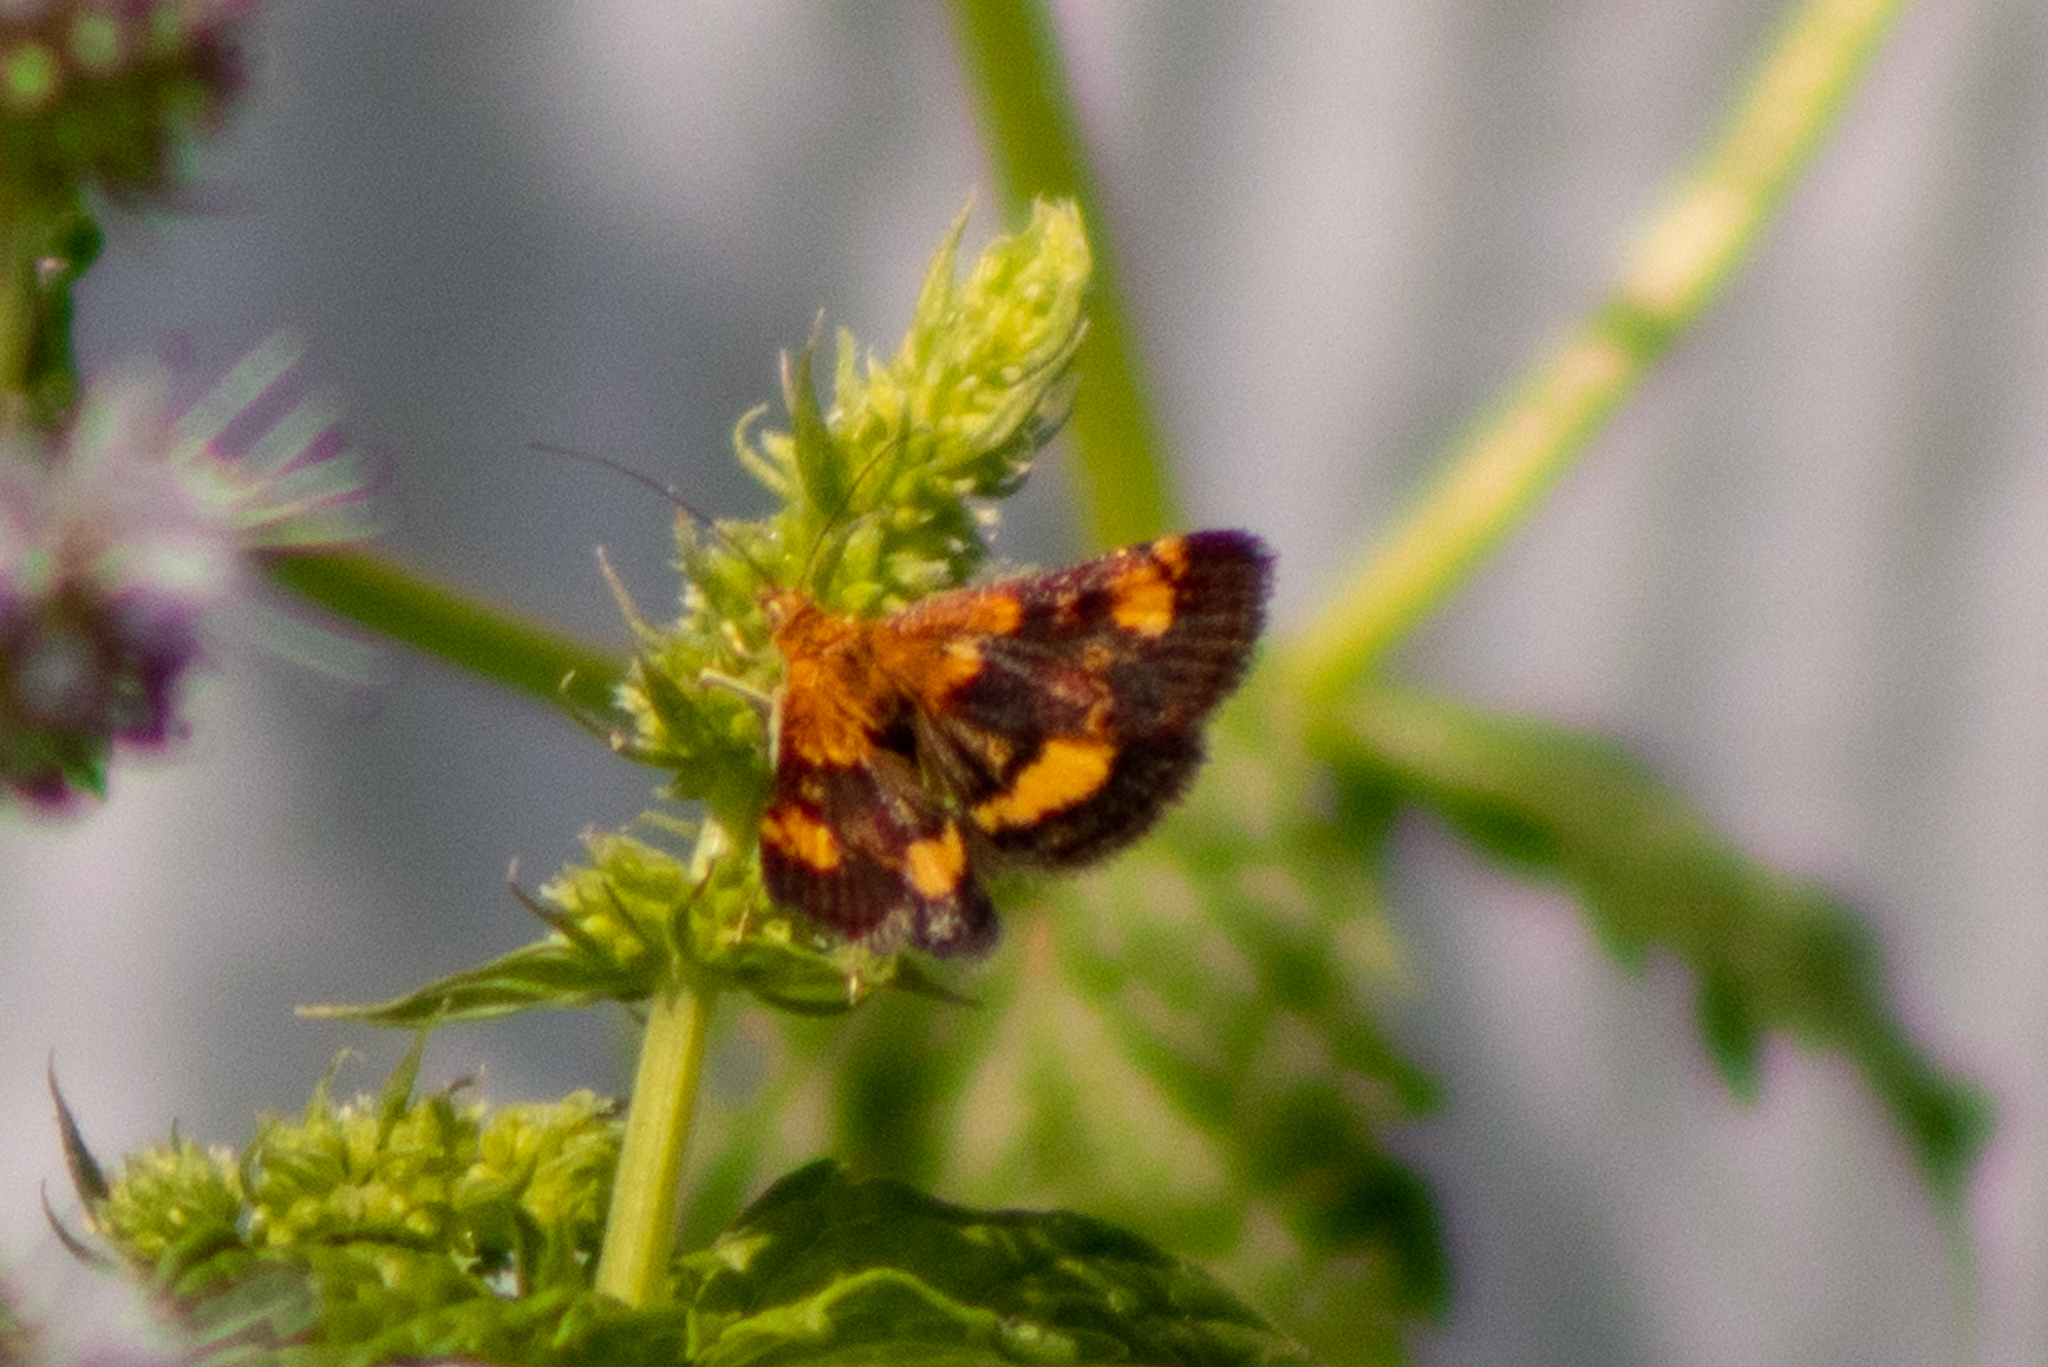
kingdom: Animalia
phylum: Arthropoda
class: Insecta
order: Lepidoptera
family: Crambidae
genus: Pyrausta
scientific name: Pyrausta orphisalis
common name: Orange mint moth
